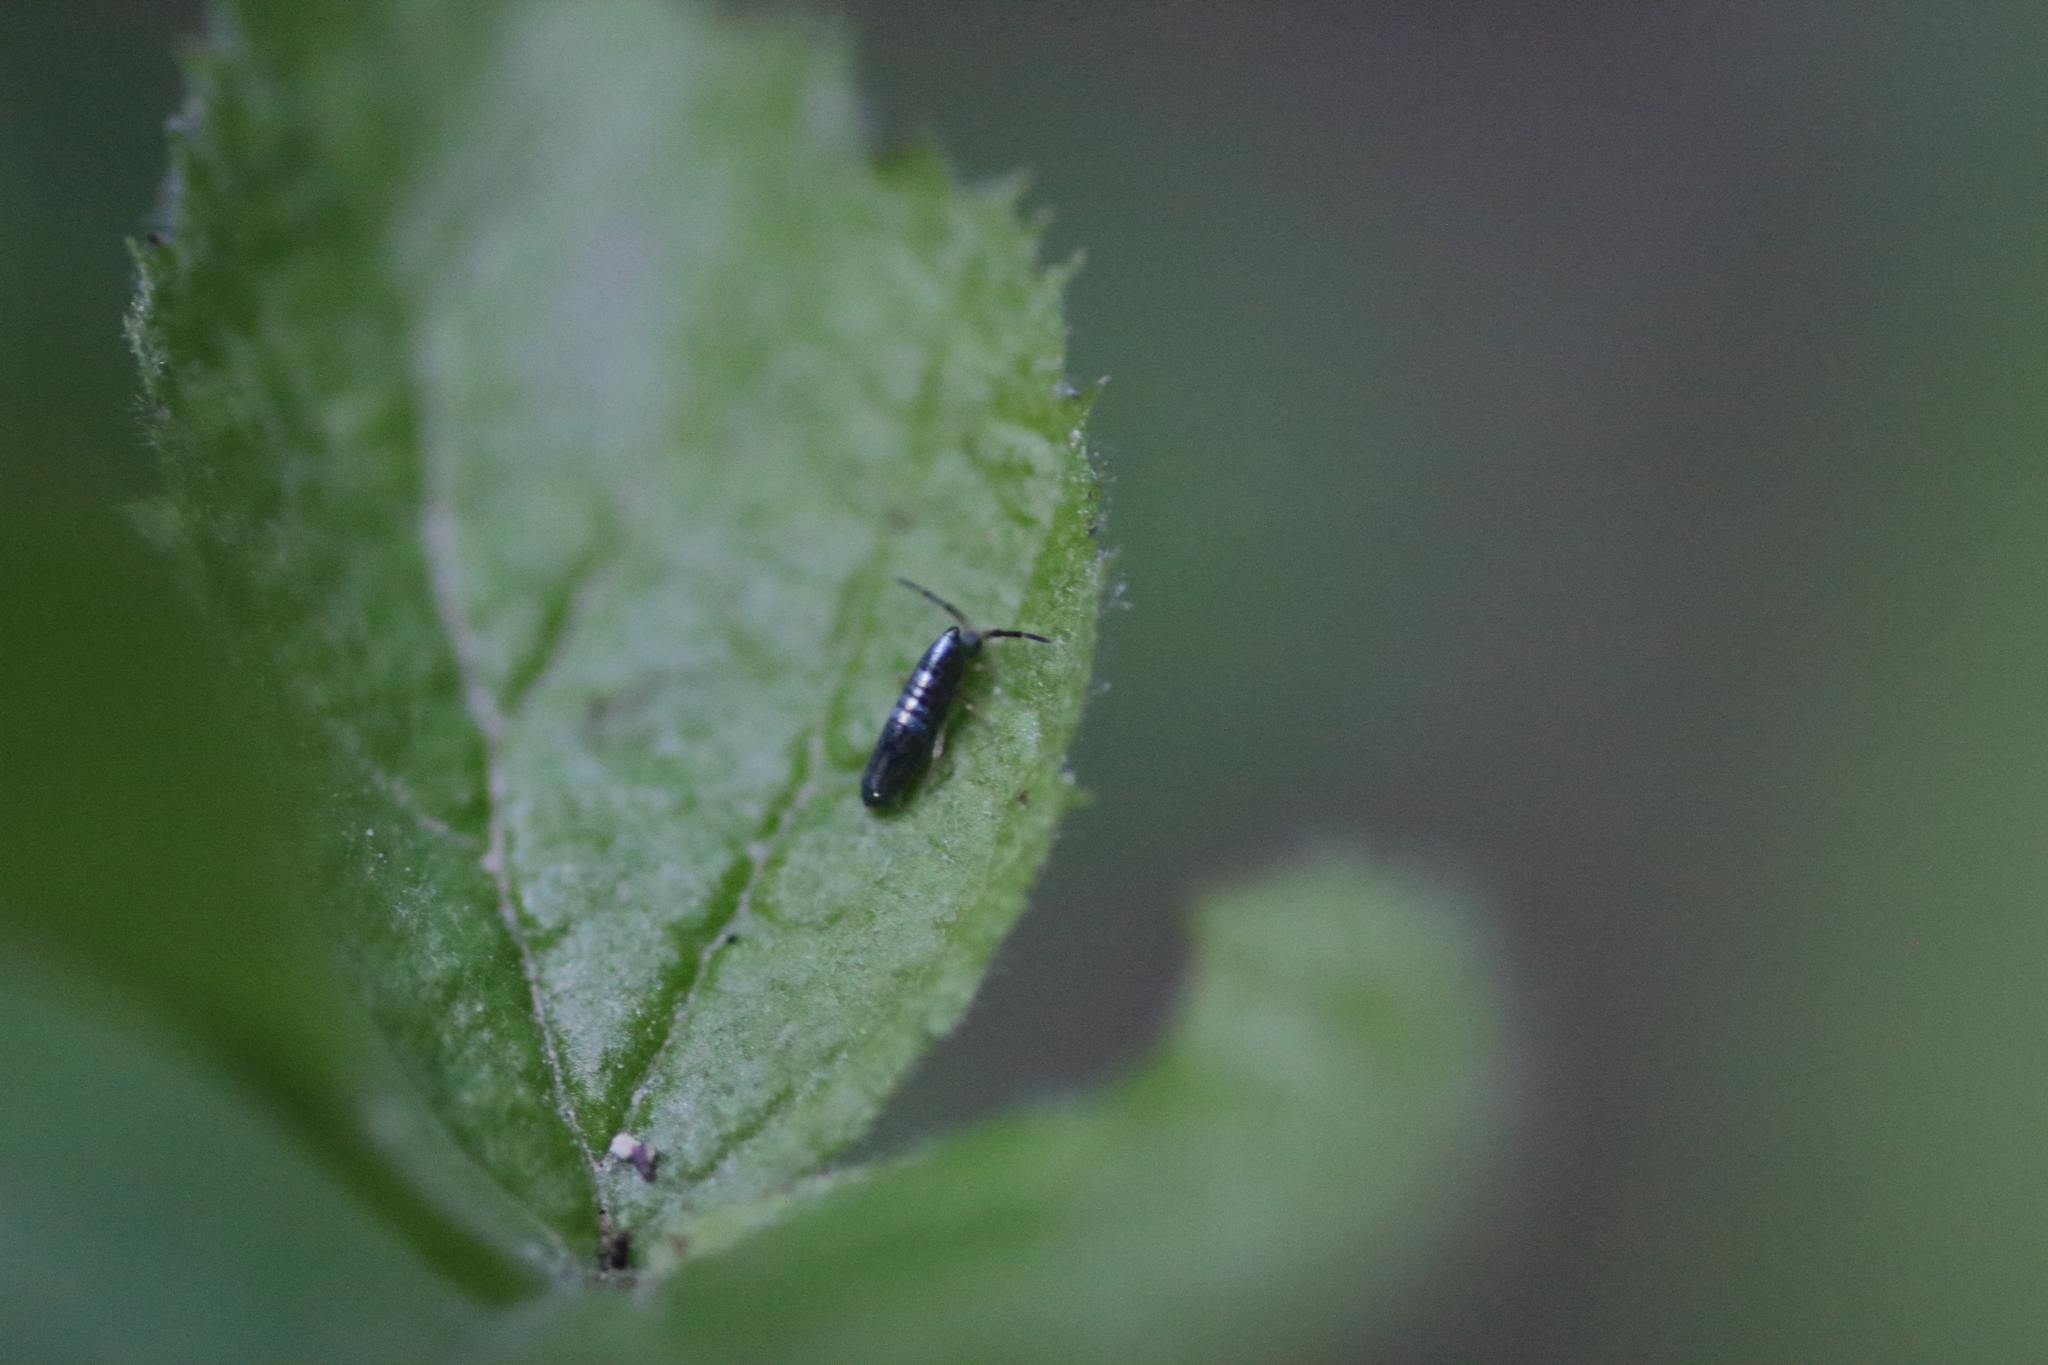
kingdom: Animalia
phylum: Arthropoda
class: Collembola
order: Entomobryomorpha
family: Entomobryidae
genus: Lepidocyrtus
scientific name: Lepidocyrtus paradoxus
